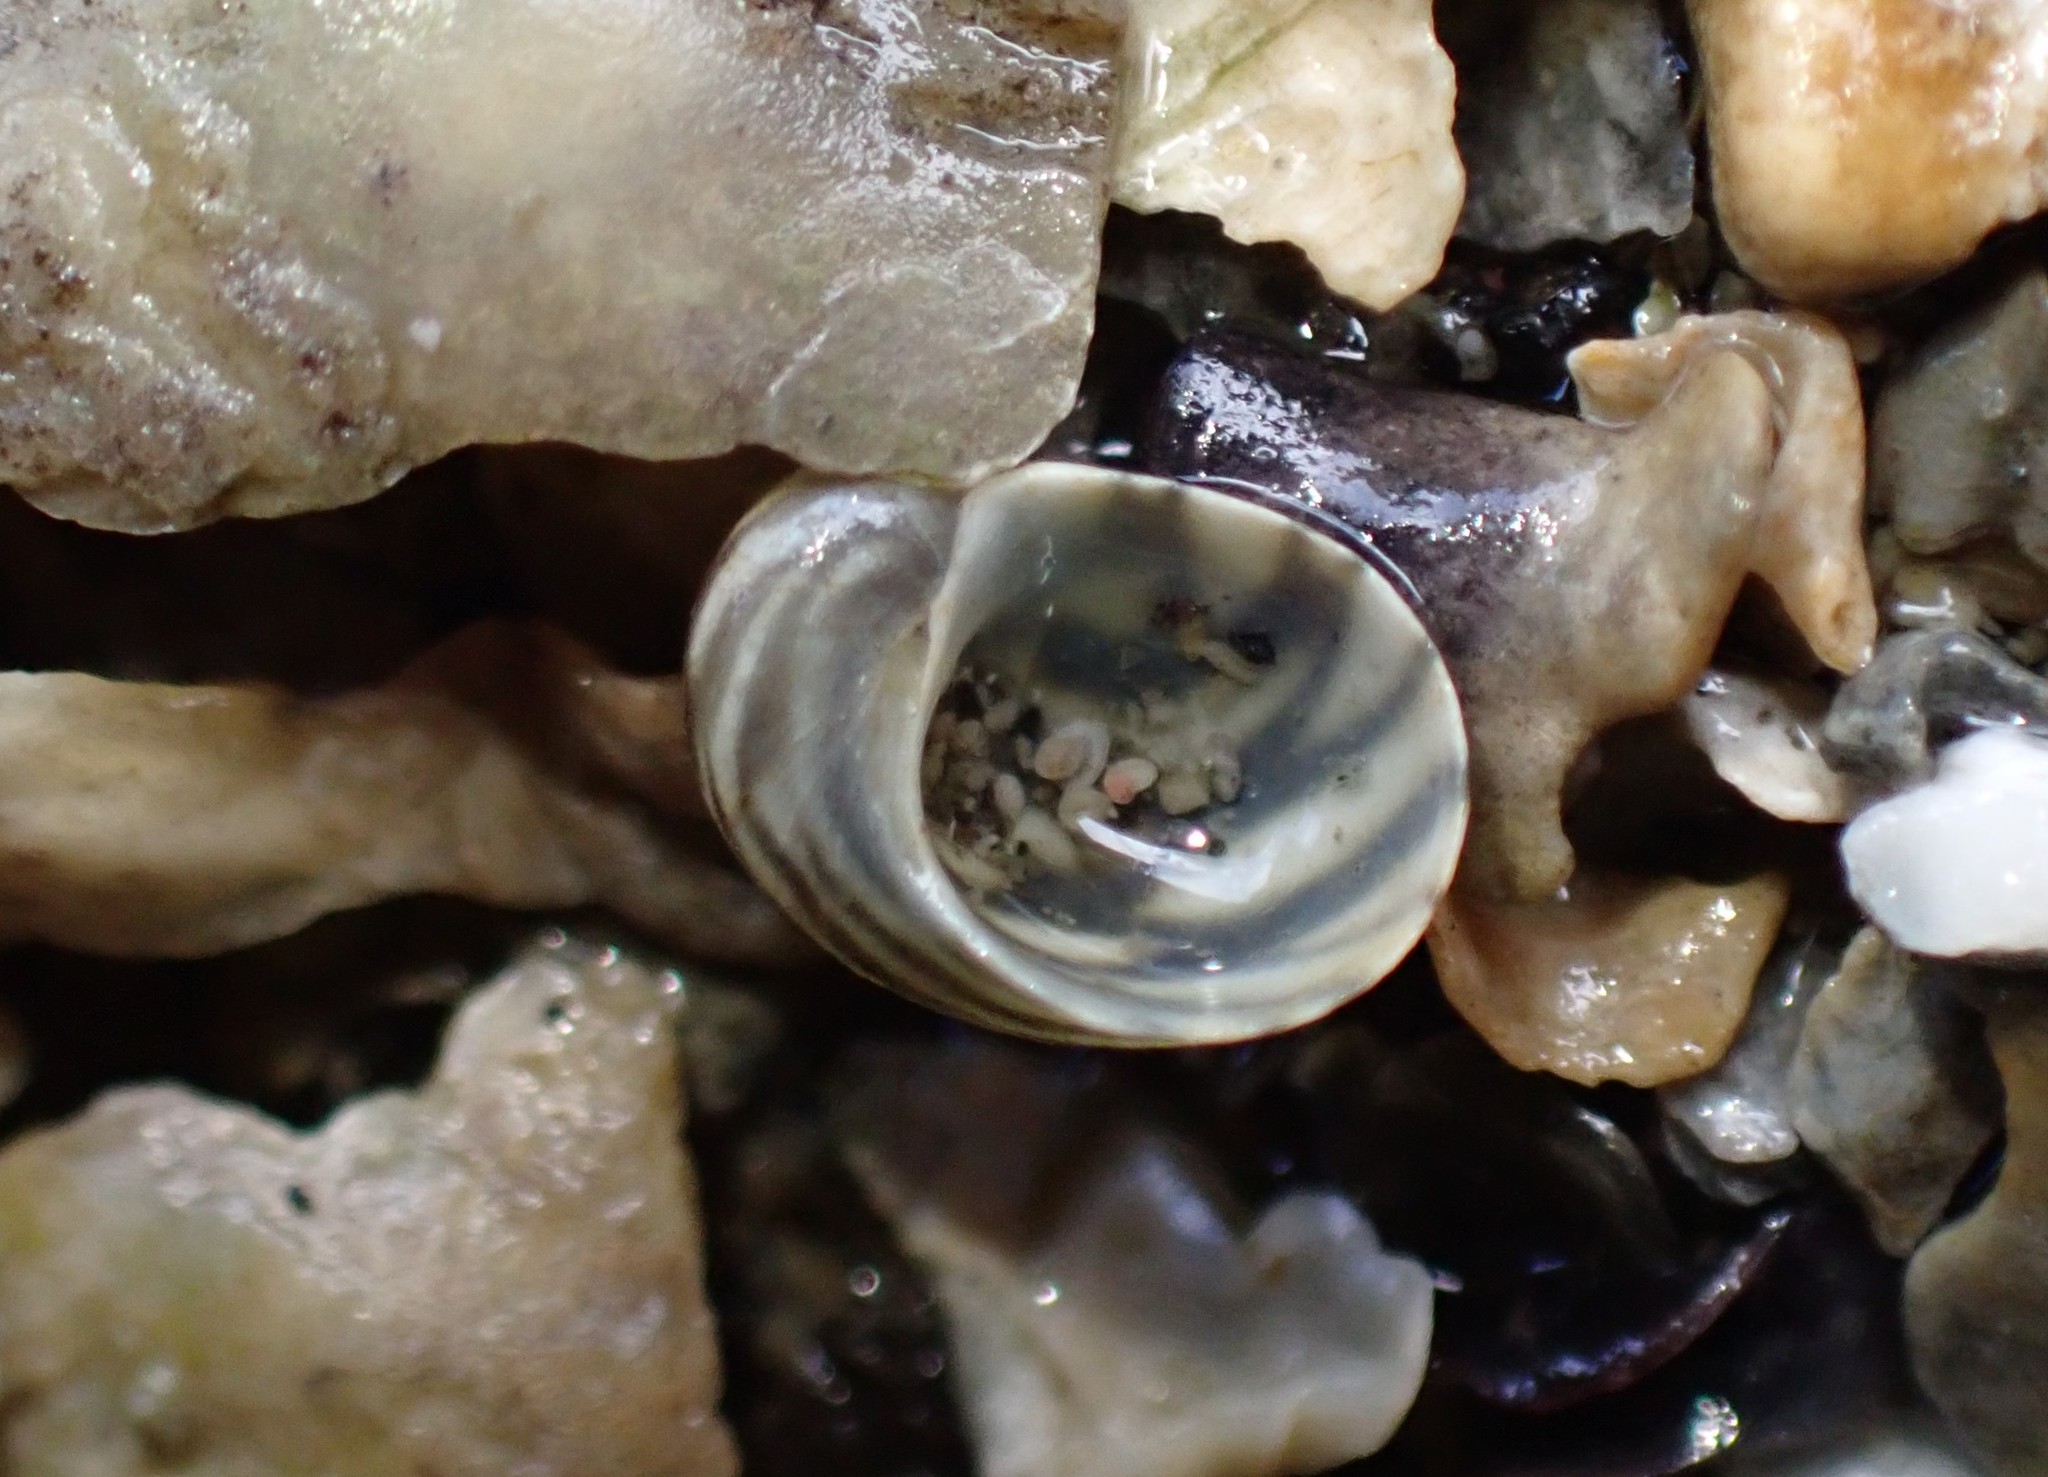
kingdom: Animalia
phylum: Mollusca
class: Gastropoda
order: Trochida
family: Trochidae
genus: Fossarina
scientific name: Fossarina rimata
